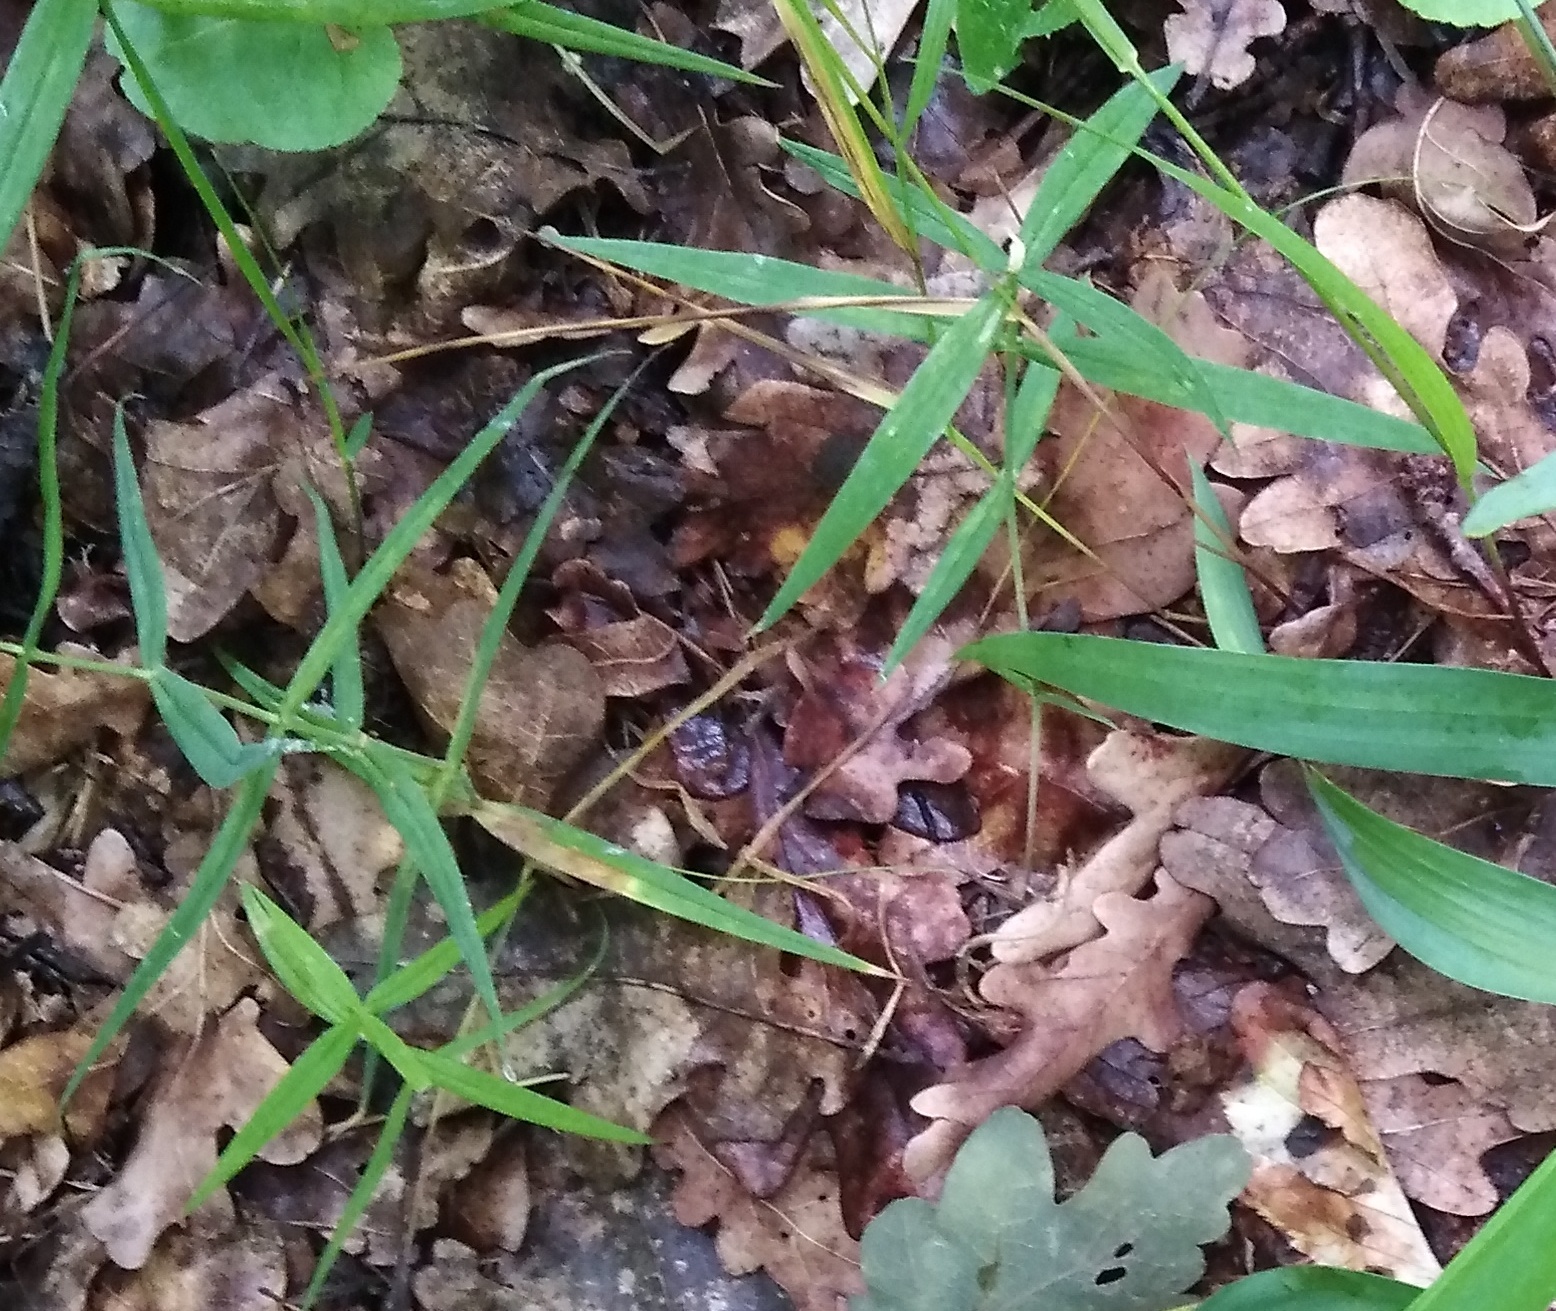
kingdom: Plantae
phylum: Tracheophyta
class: Magnoliopsida
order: Caryophyllales
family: Caryophyllaceae
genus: Rabelera
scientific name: Rabelera holostea
